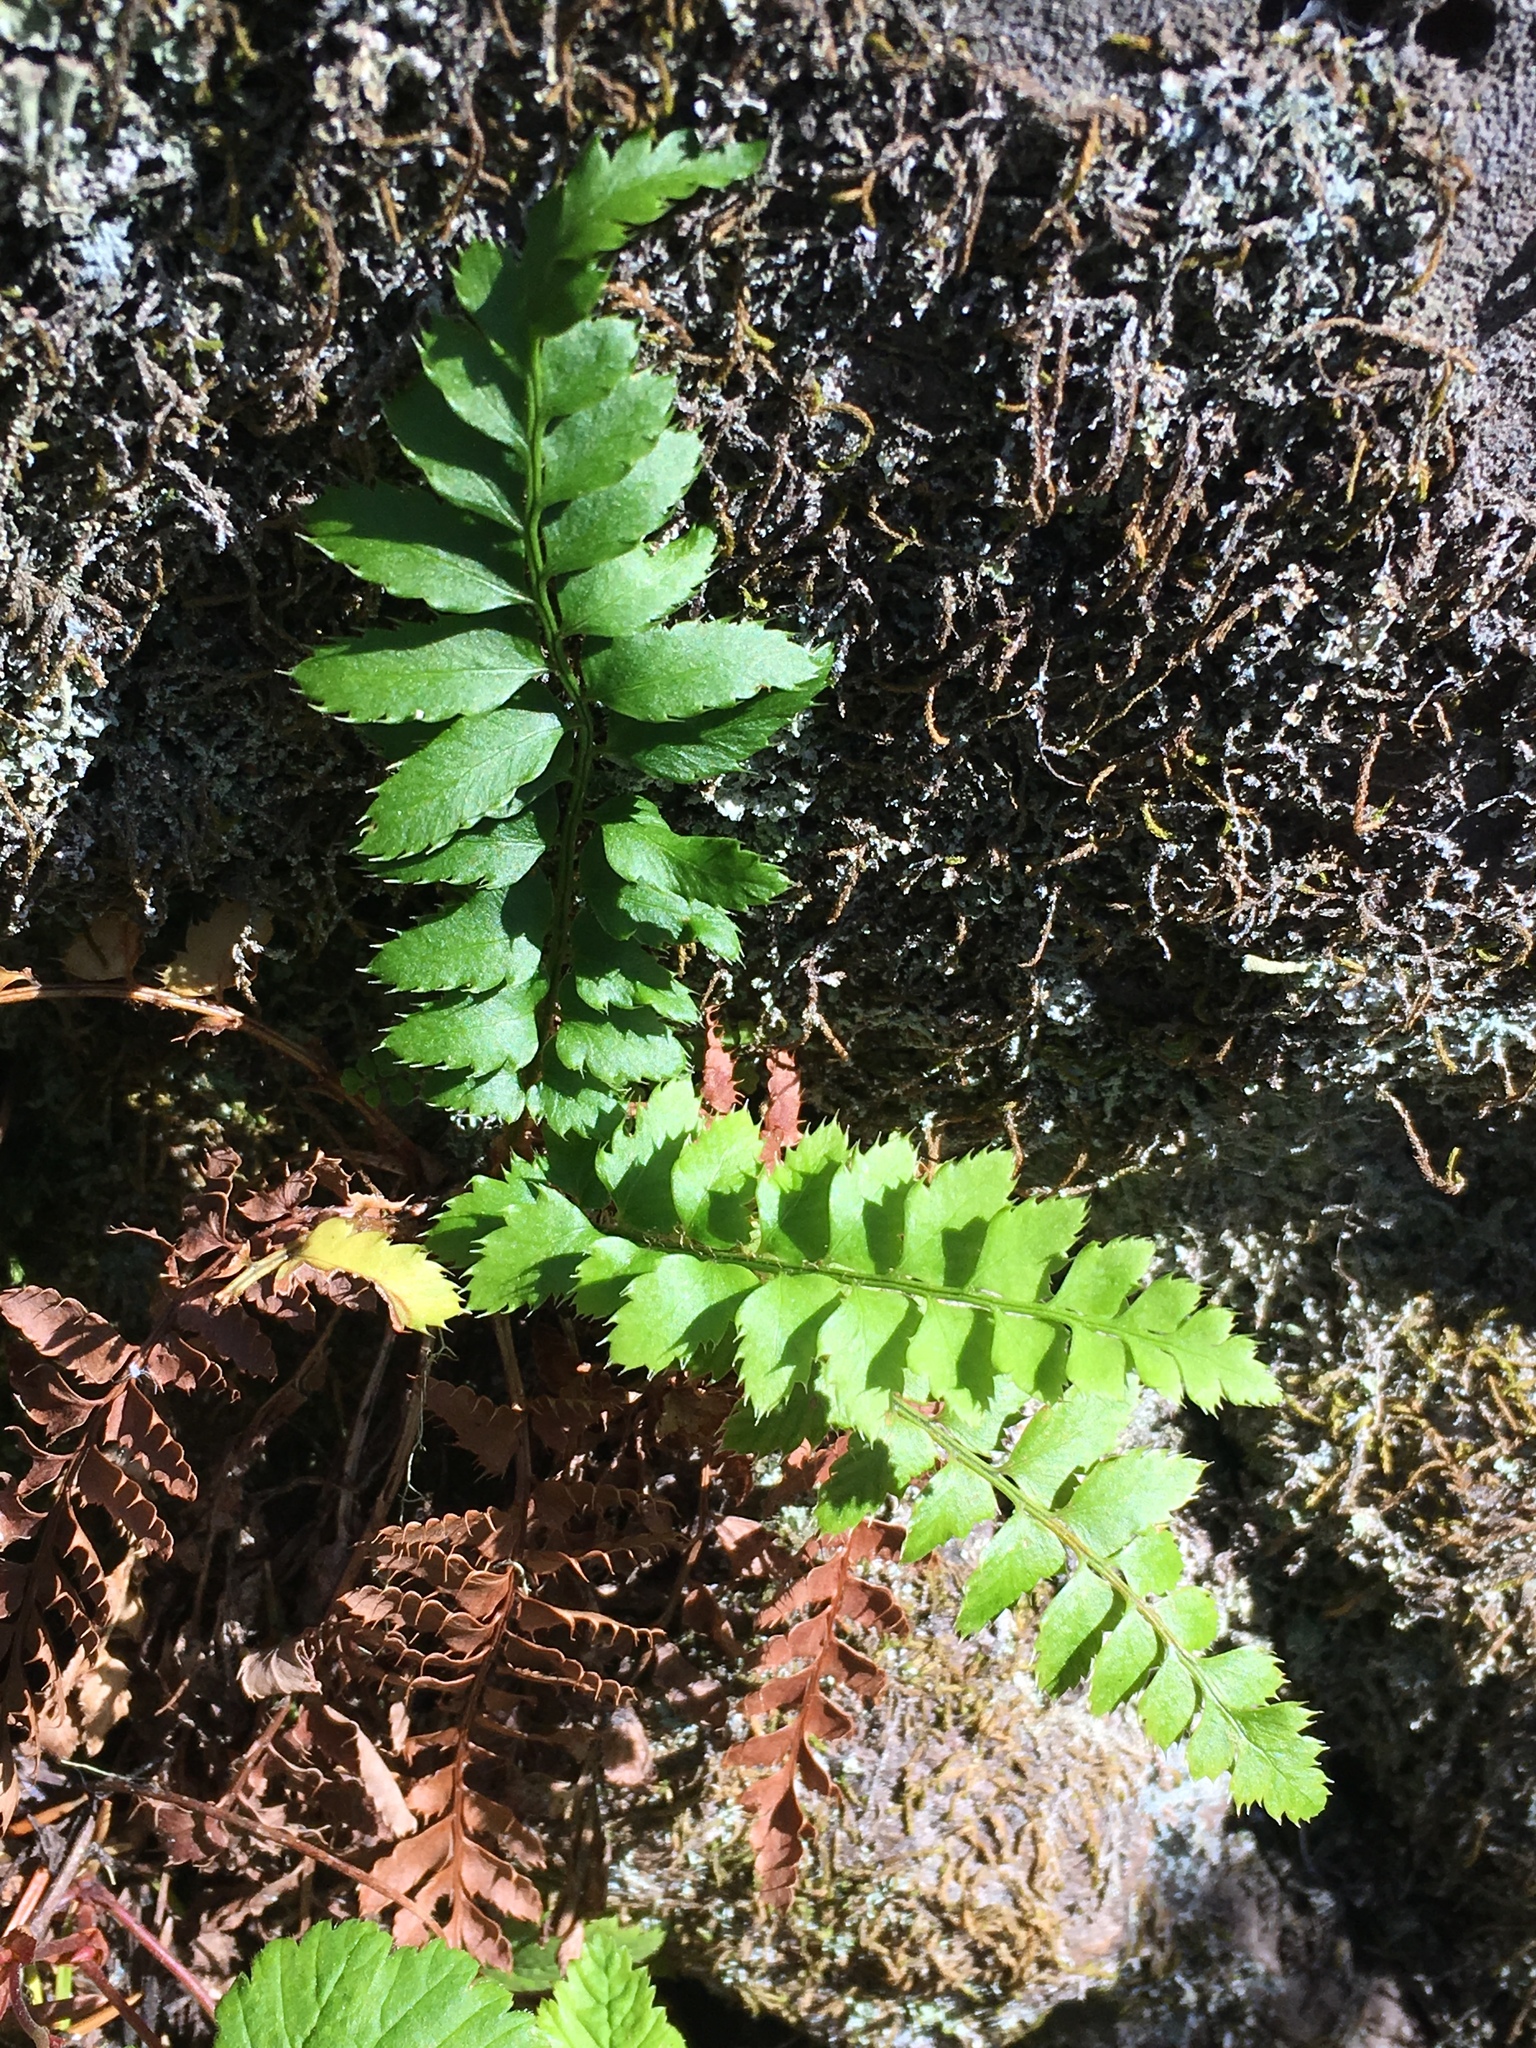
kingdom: Plantae
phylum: Tracheophyta
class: Polypodiopsida
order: Polypodiales
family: Dryopteridaceae
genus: Polystichum
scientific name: Polystichum munitum
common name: Western sword-fern
